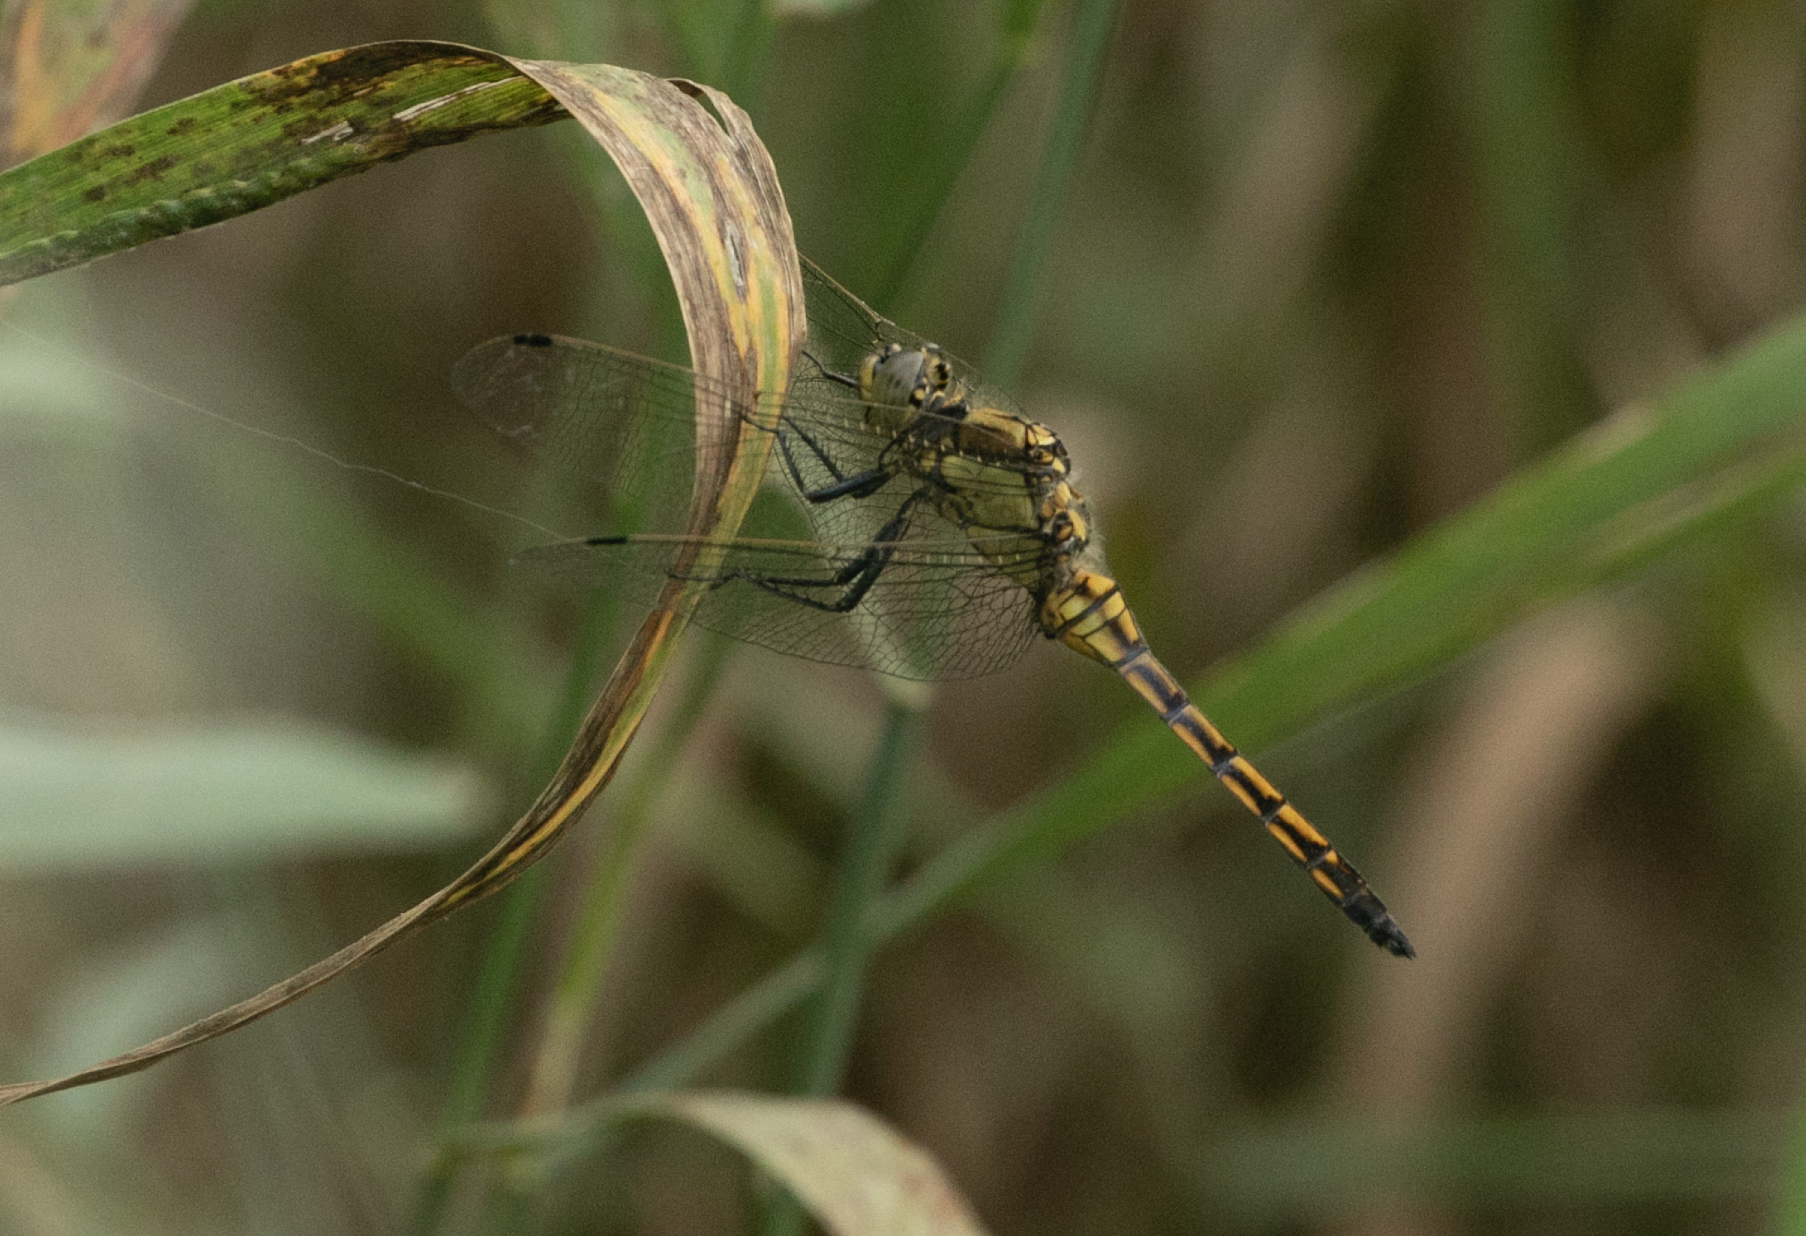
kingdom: Animalia
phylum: Arthropoda
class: Insecta
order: Odonata
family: Libellulidae
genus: Orthetrum
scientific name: Orthetrum cancellatum
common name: Black-tailed skimmer
